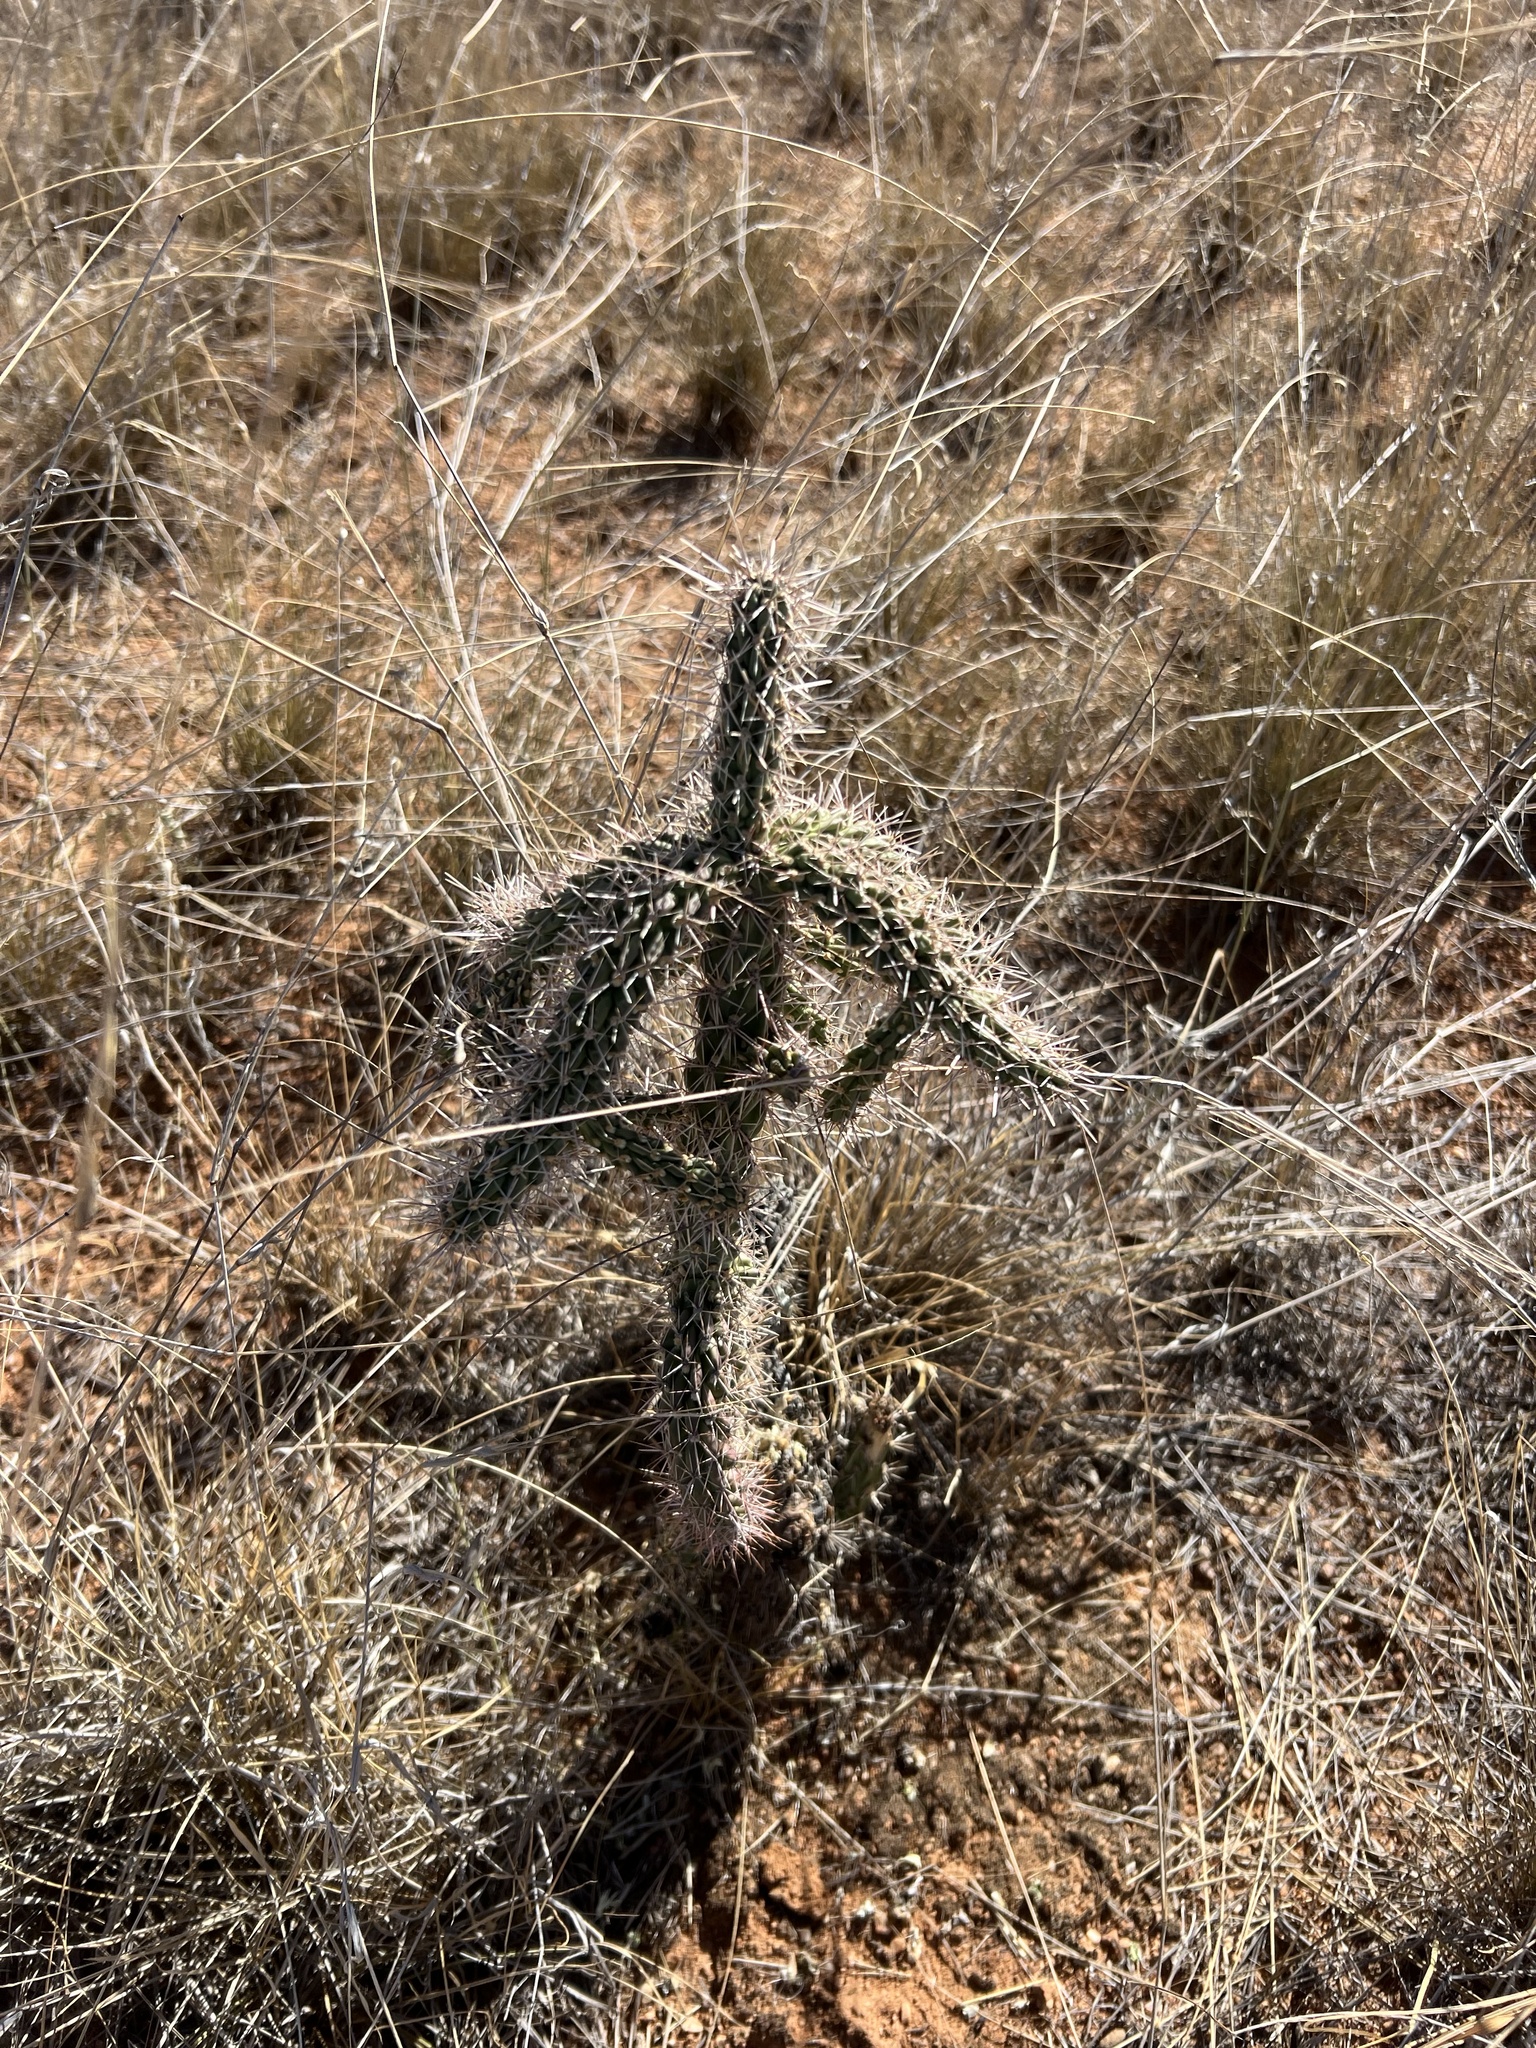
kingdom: Plantae
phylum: Tracheophyta
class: Magnoliopsida
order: Caryophyllales
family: Cactaceae
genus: Cylindropuntia
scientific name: Cylindropuntia imbricata
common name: Candelabrum cactus
